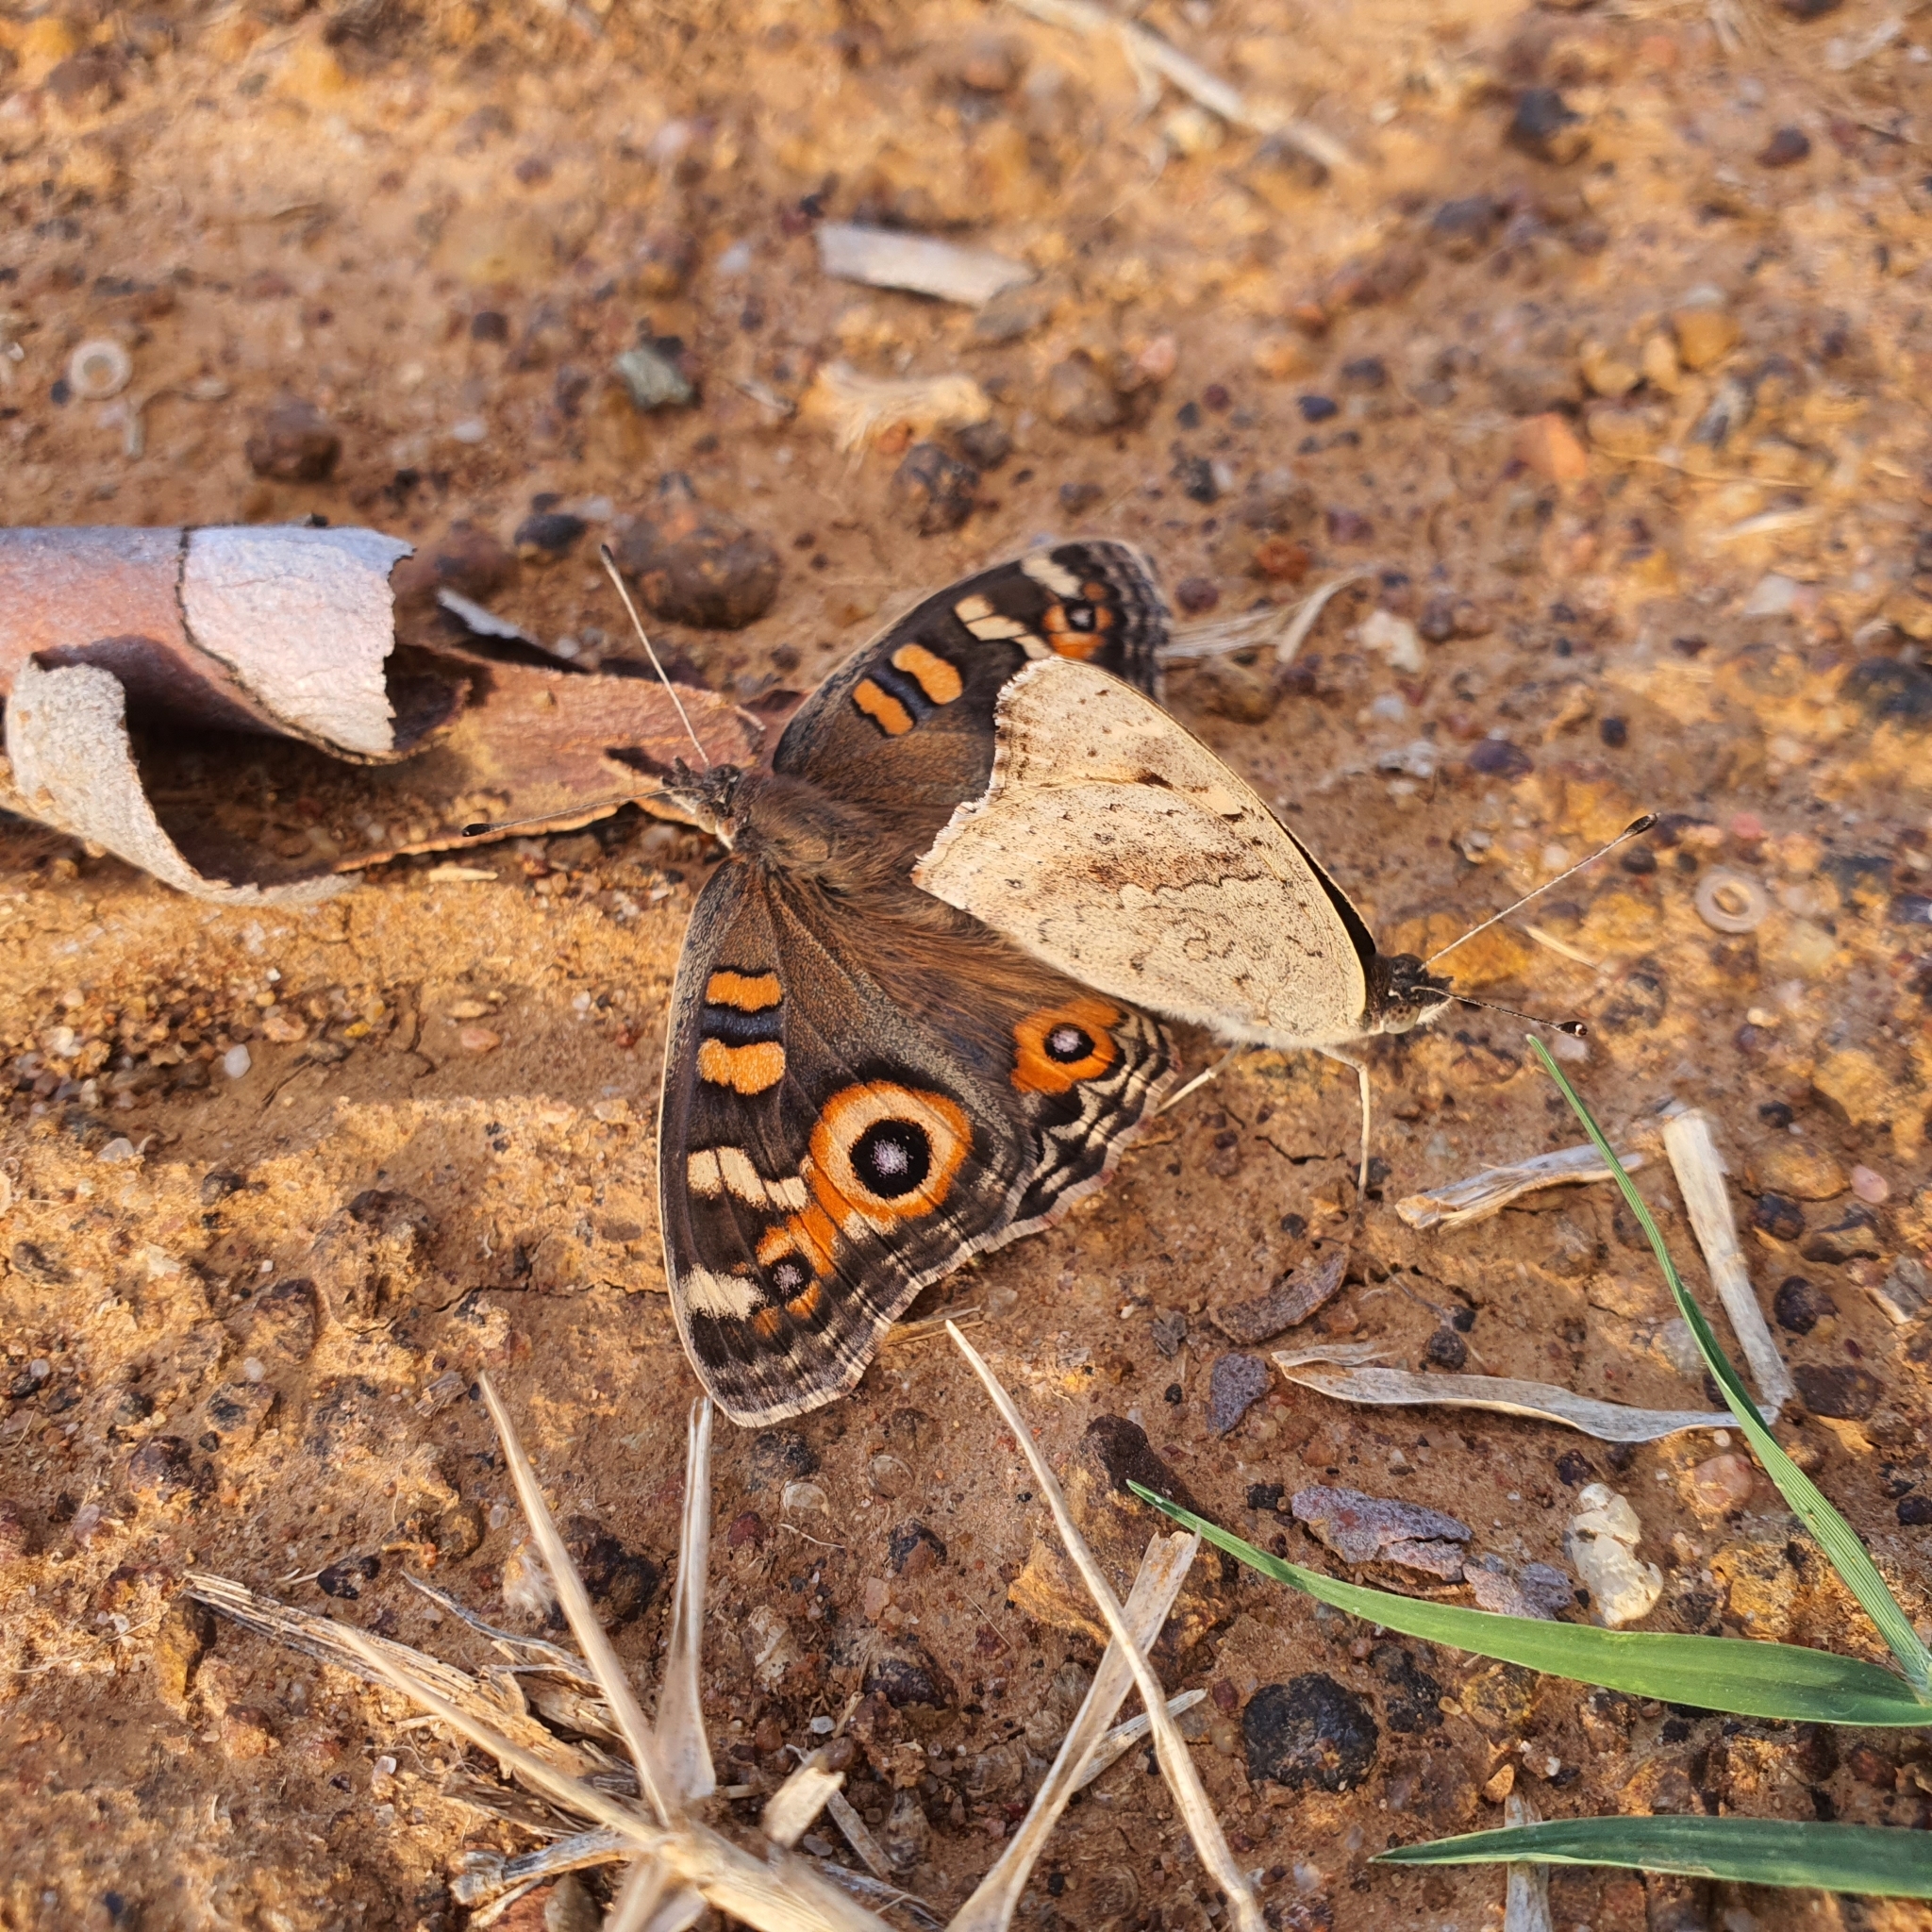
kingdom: Animalia
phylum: Arthropoda
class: Insecta
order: Lepidoptera
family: Nymphalidae
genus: Junonia
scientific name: Junonia villida
